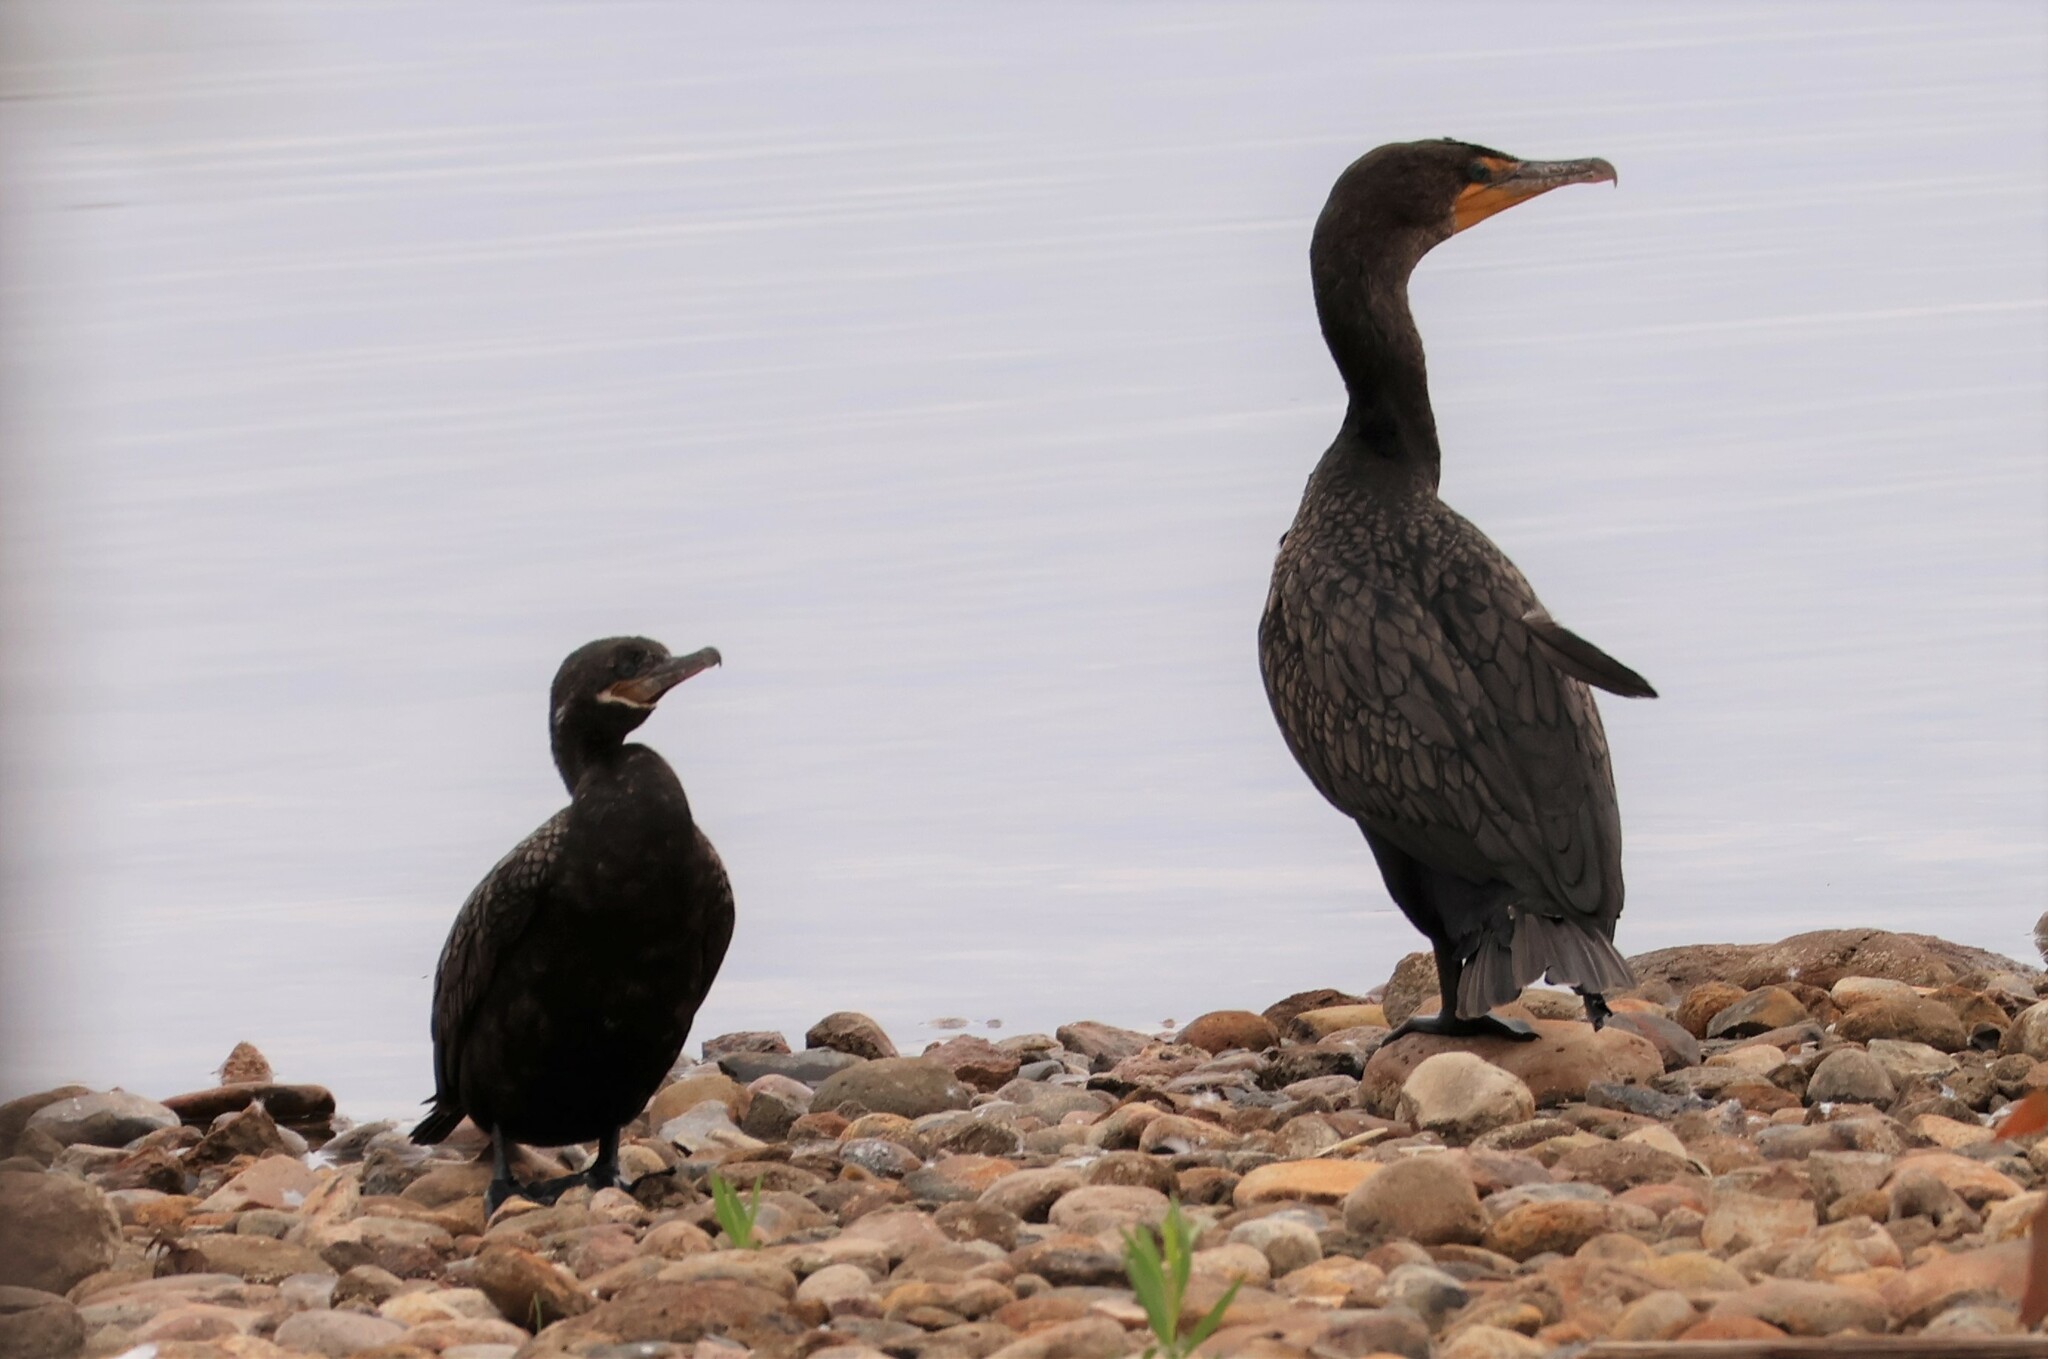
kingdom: Animalia
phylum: Chordata
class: Aves
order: Suliformes
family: Phalacrocoracidae
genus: Phalacrocorax
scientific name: Phalacrocorax brasilianus
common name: Neotropic cormorant
